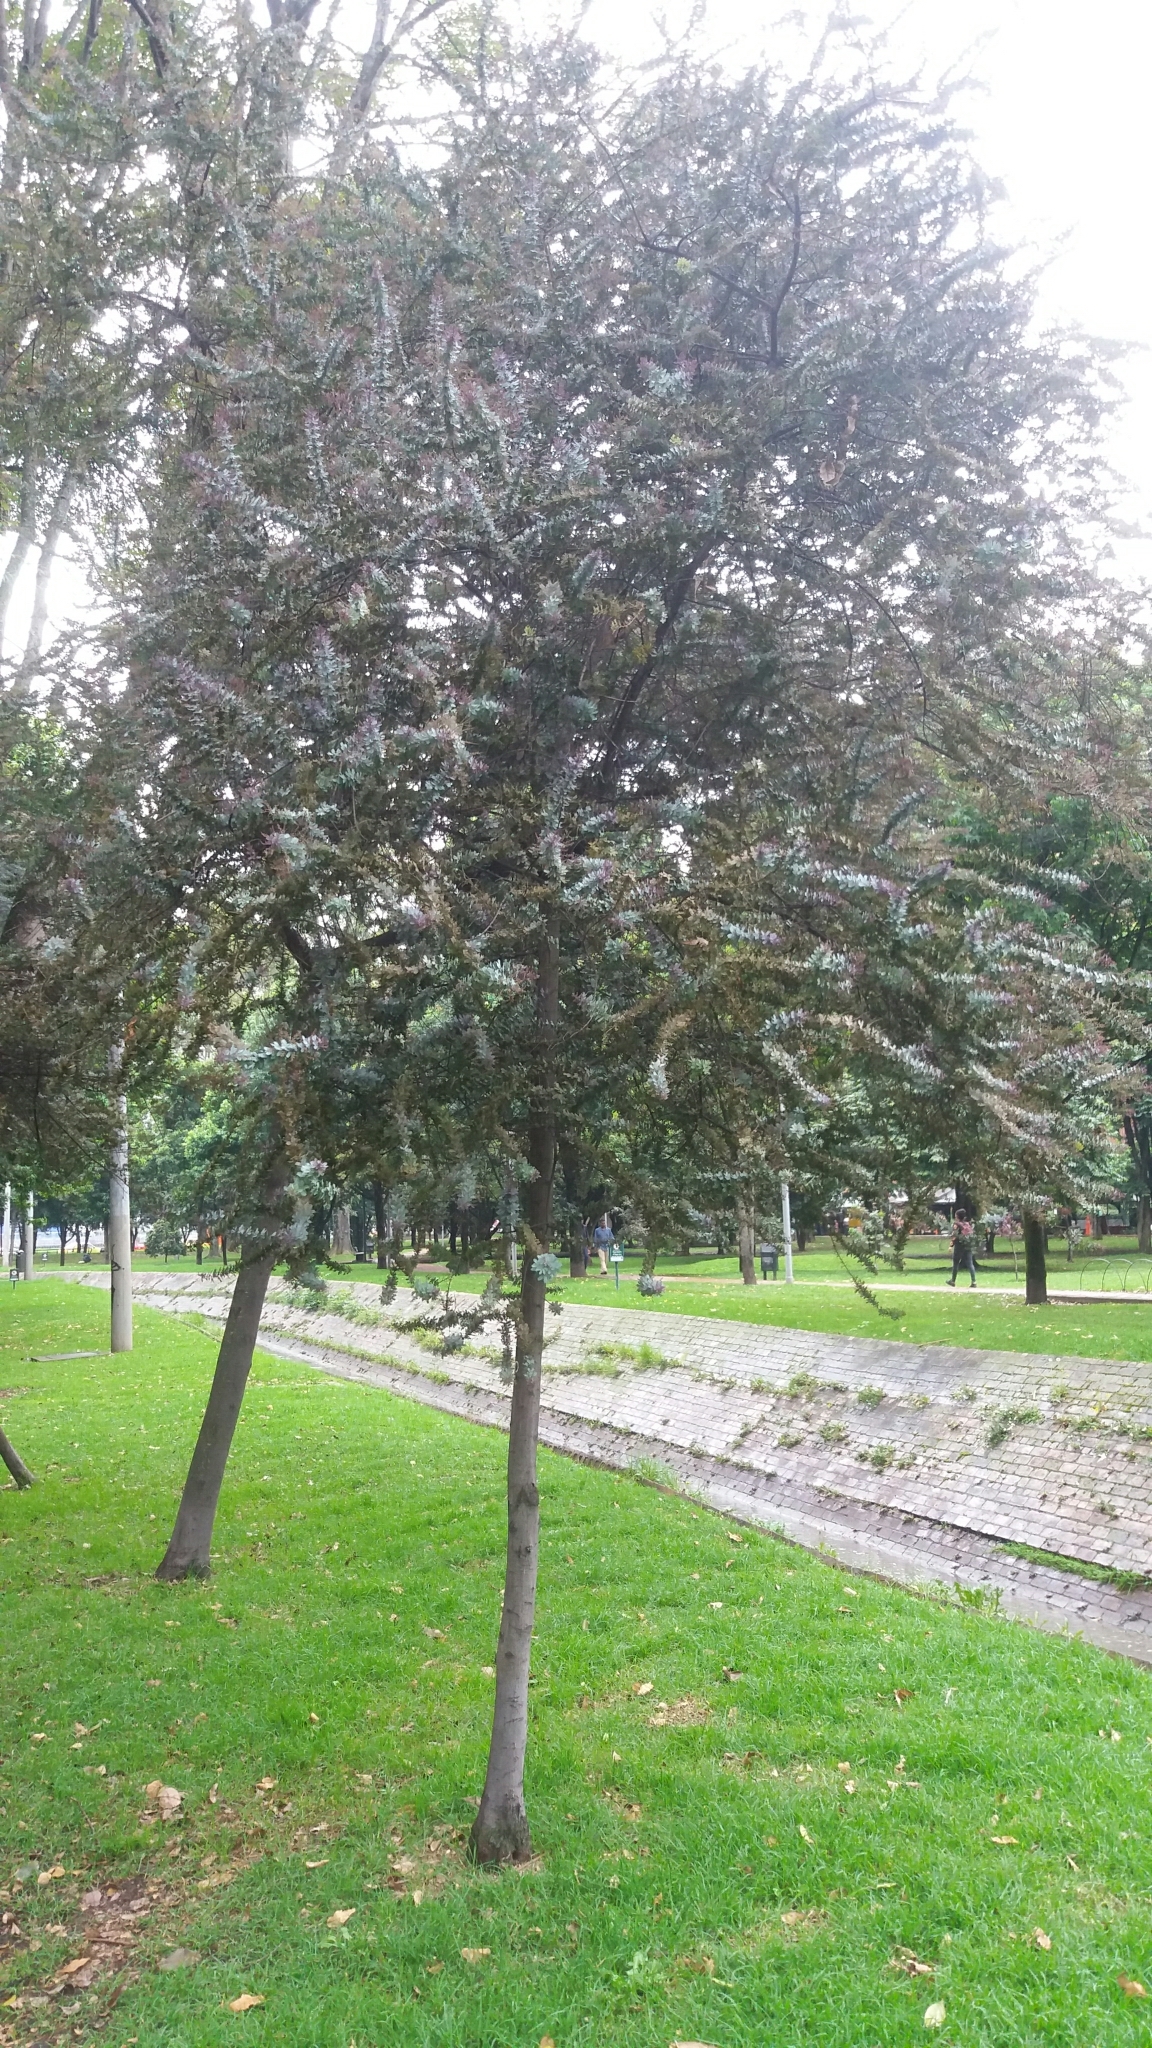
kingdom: Plantae
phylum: Tracheophyta
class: Magnoliopsida
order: Fabales
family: Fabaceae
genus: Acacia
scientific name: Acacia baileyana
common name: Cootamundra wattle
